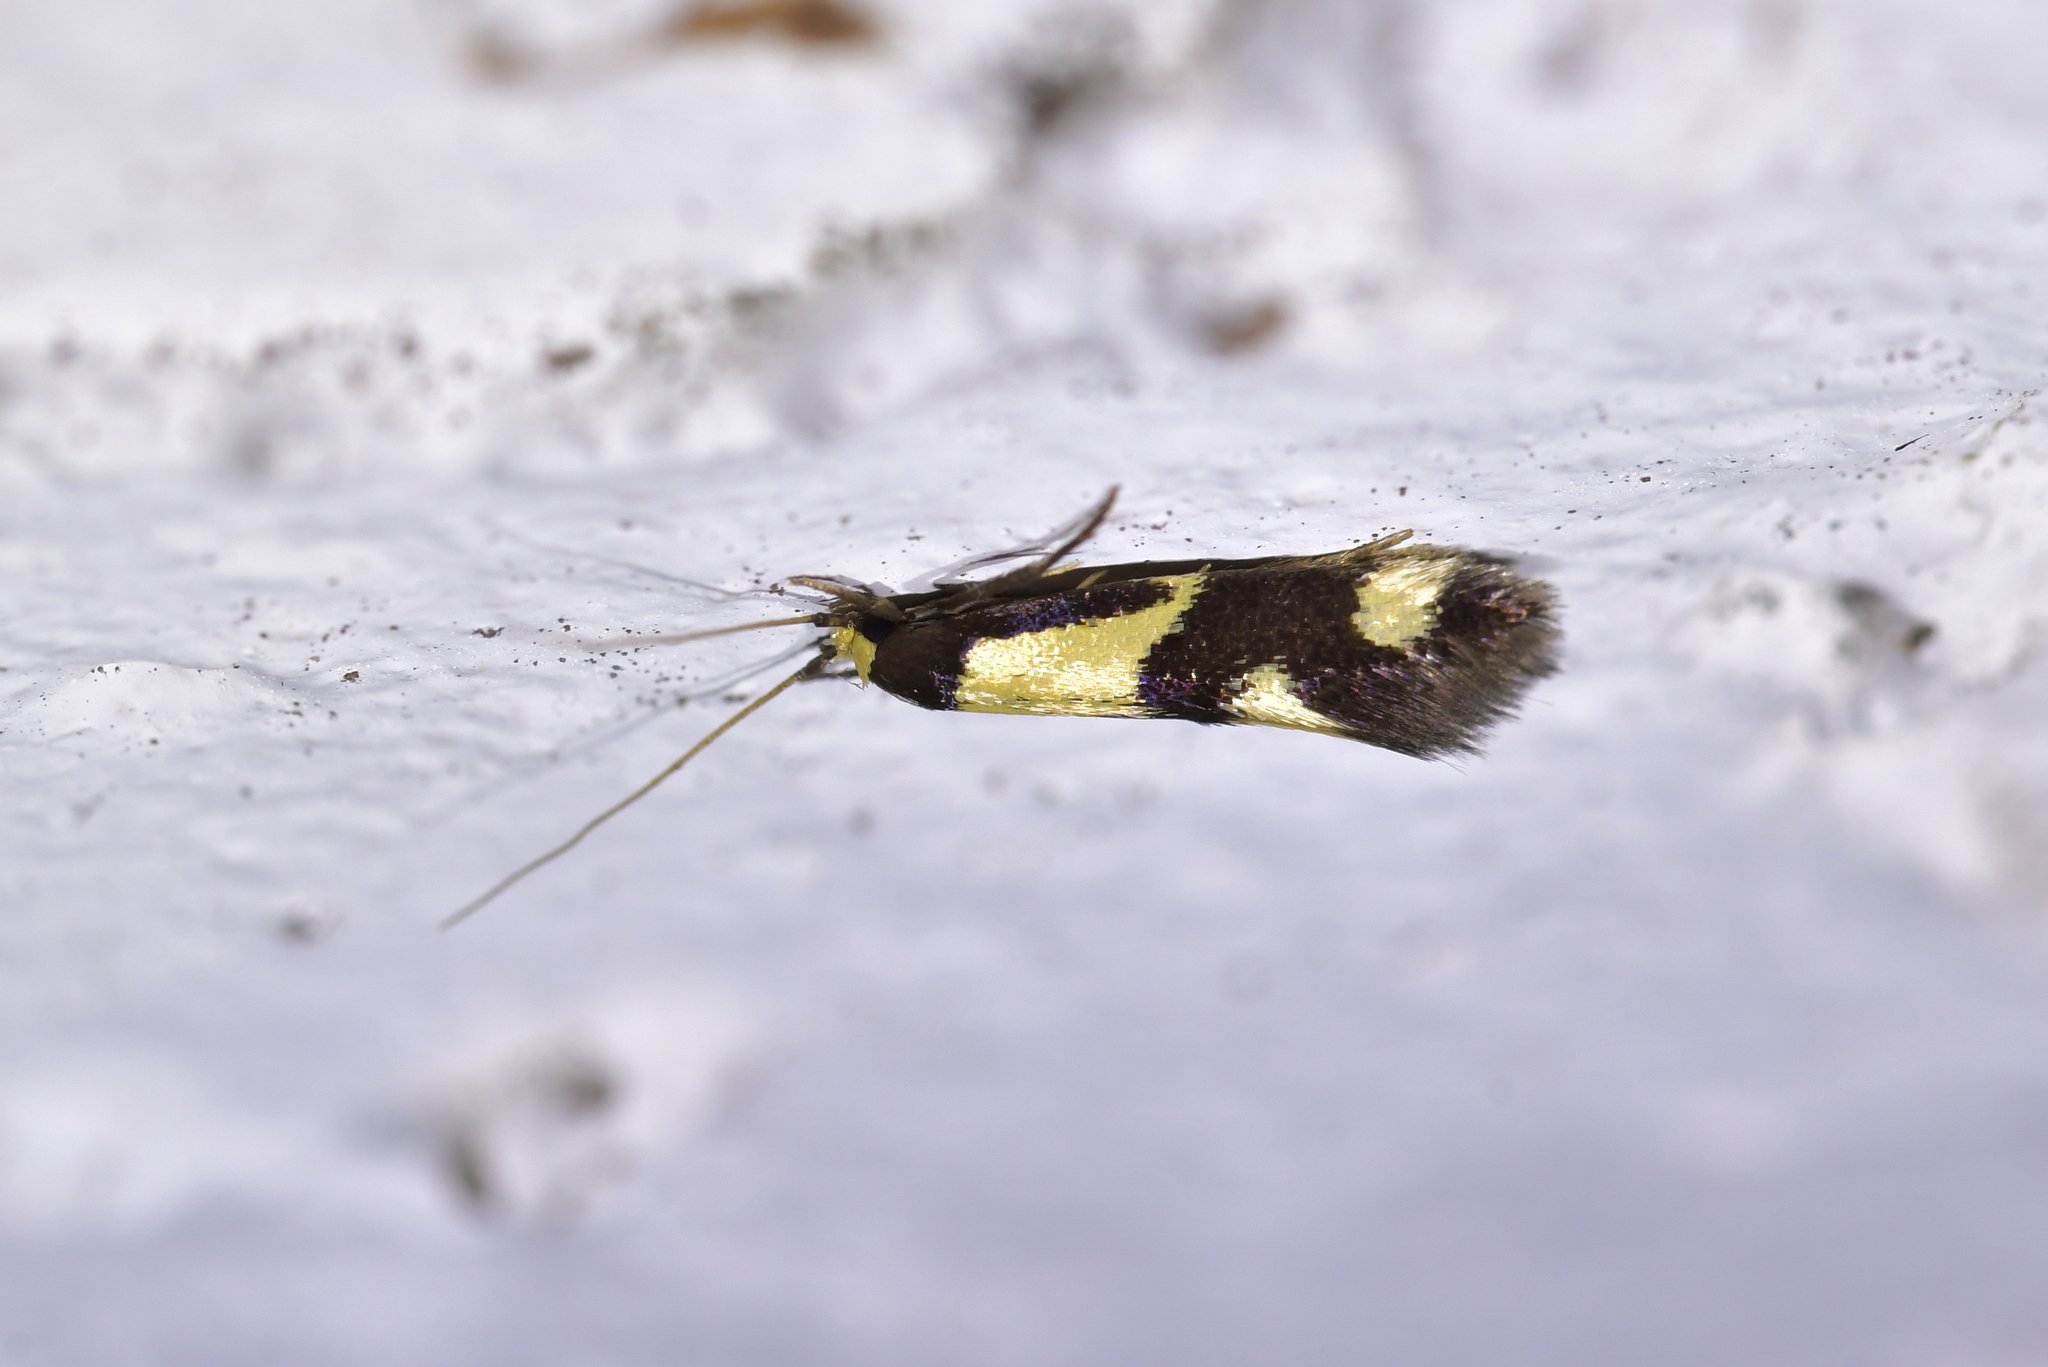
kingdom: Animalia
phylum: Arthropoda
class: Insecta
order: Lepidoptera
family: Tineidae
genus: Opogona
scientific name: Opogona comptella
